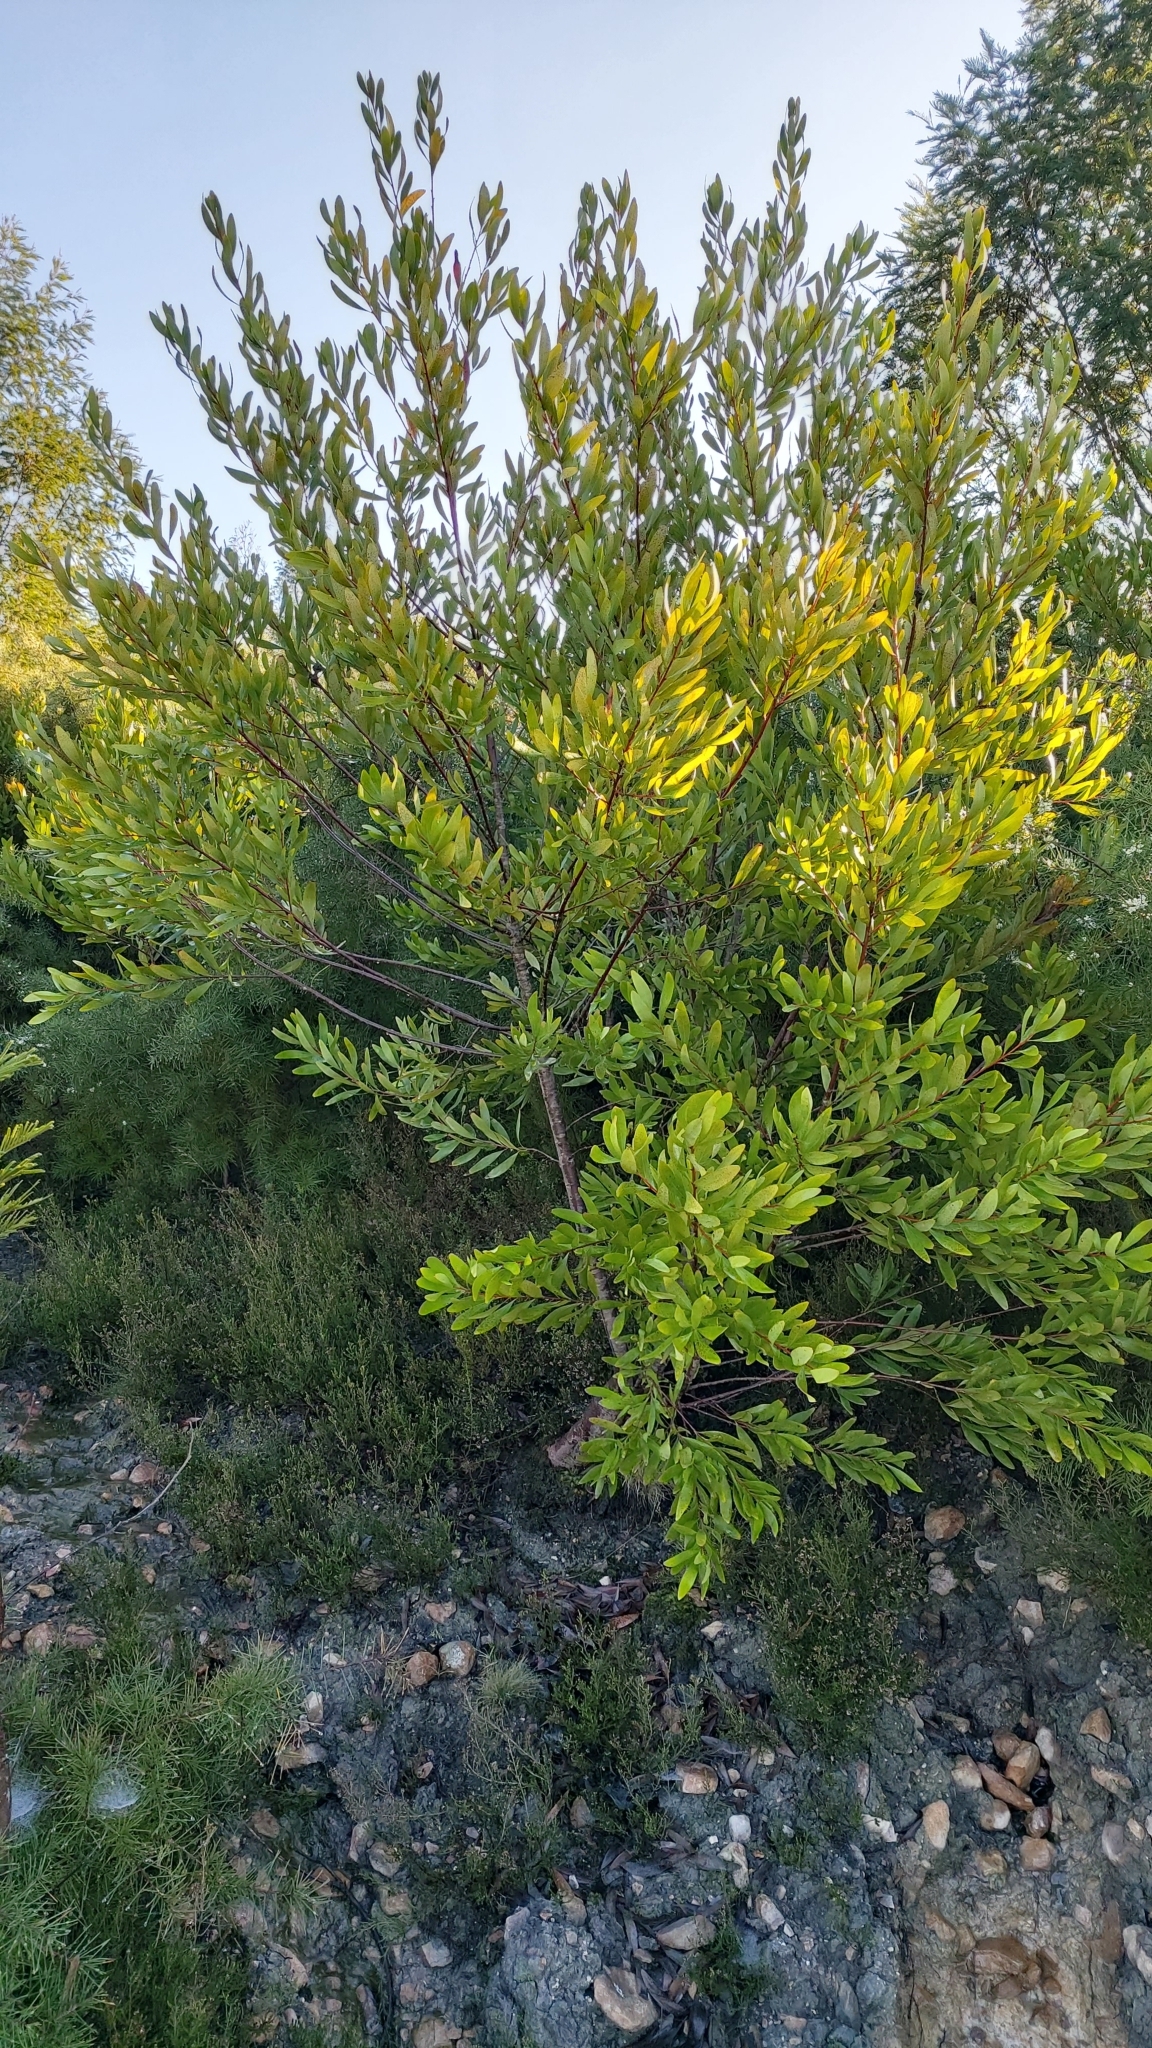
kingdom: Plantae
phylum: Tracheophyta
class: Magnoliopsida
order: Proteales
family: Proteaceae
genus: Hakea
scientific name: Hakea salicifolia
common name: Willow hakea
